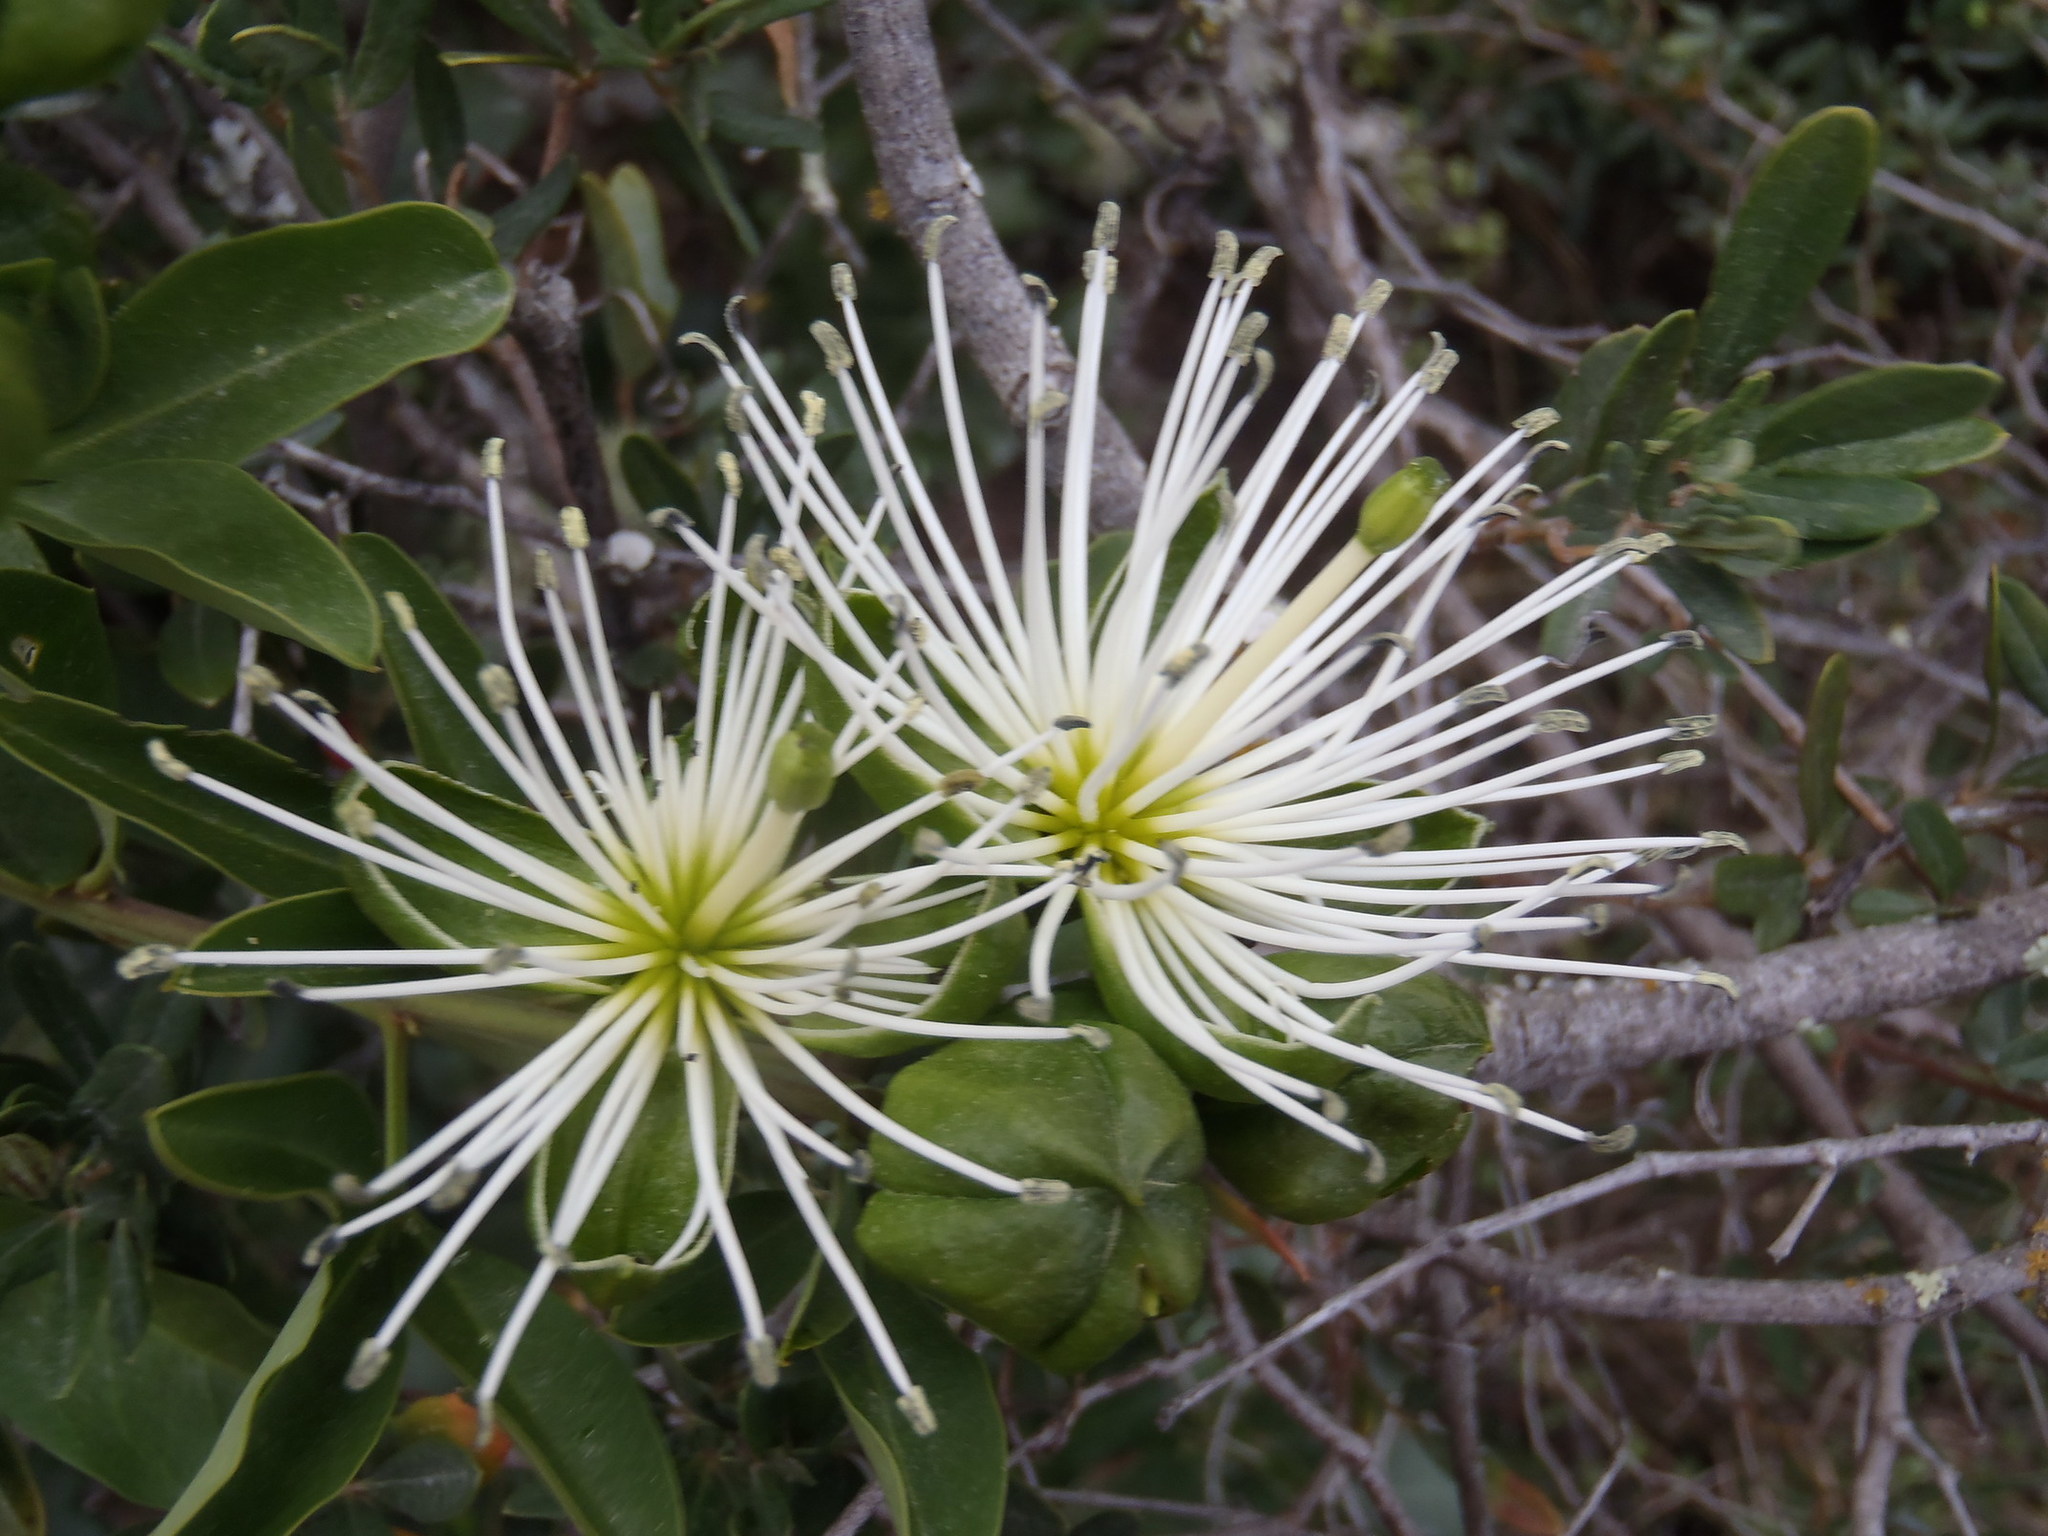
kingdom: Plantae
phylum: Tracheophyta
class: Magnoliopsida
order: Brassicales
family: Capparaceae
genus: Maerua
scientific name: Maerua cafra
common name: Bush maerua
